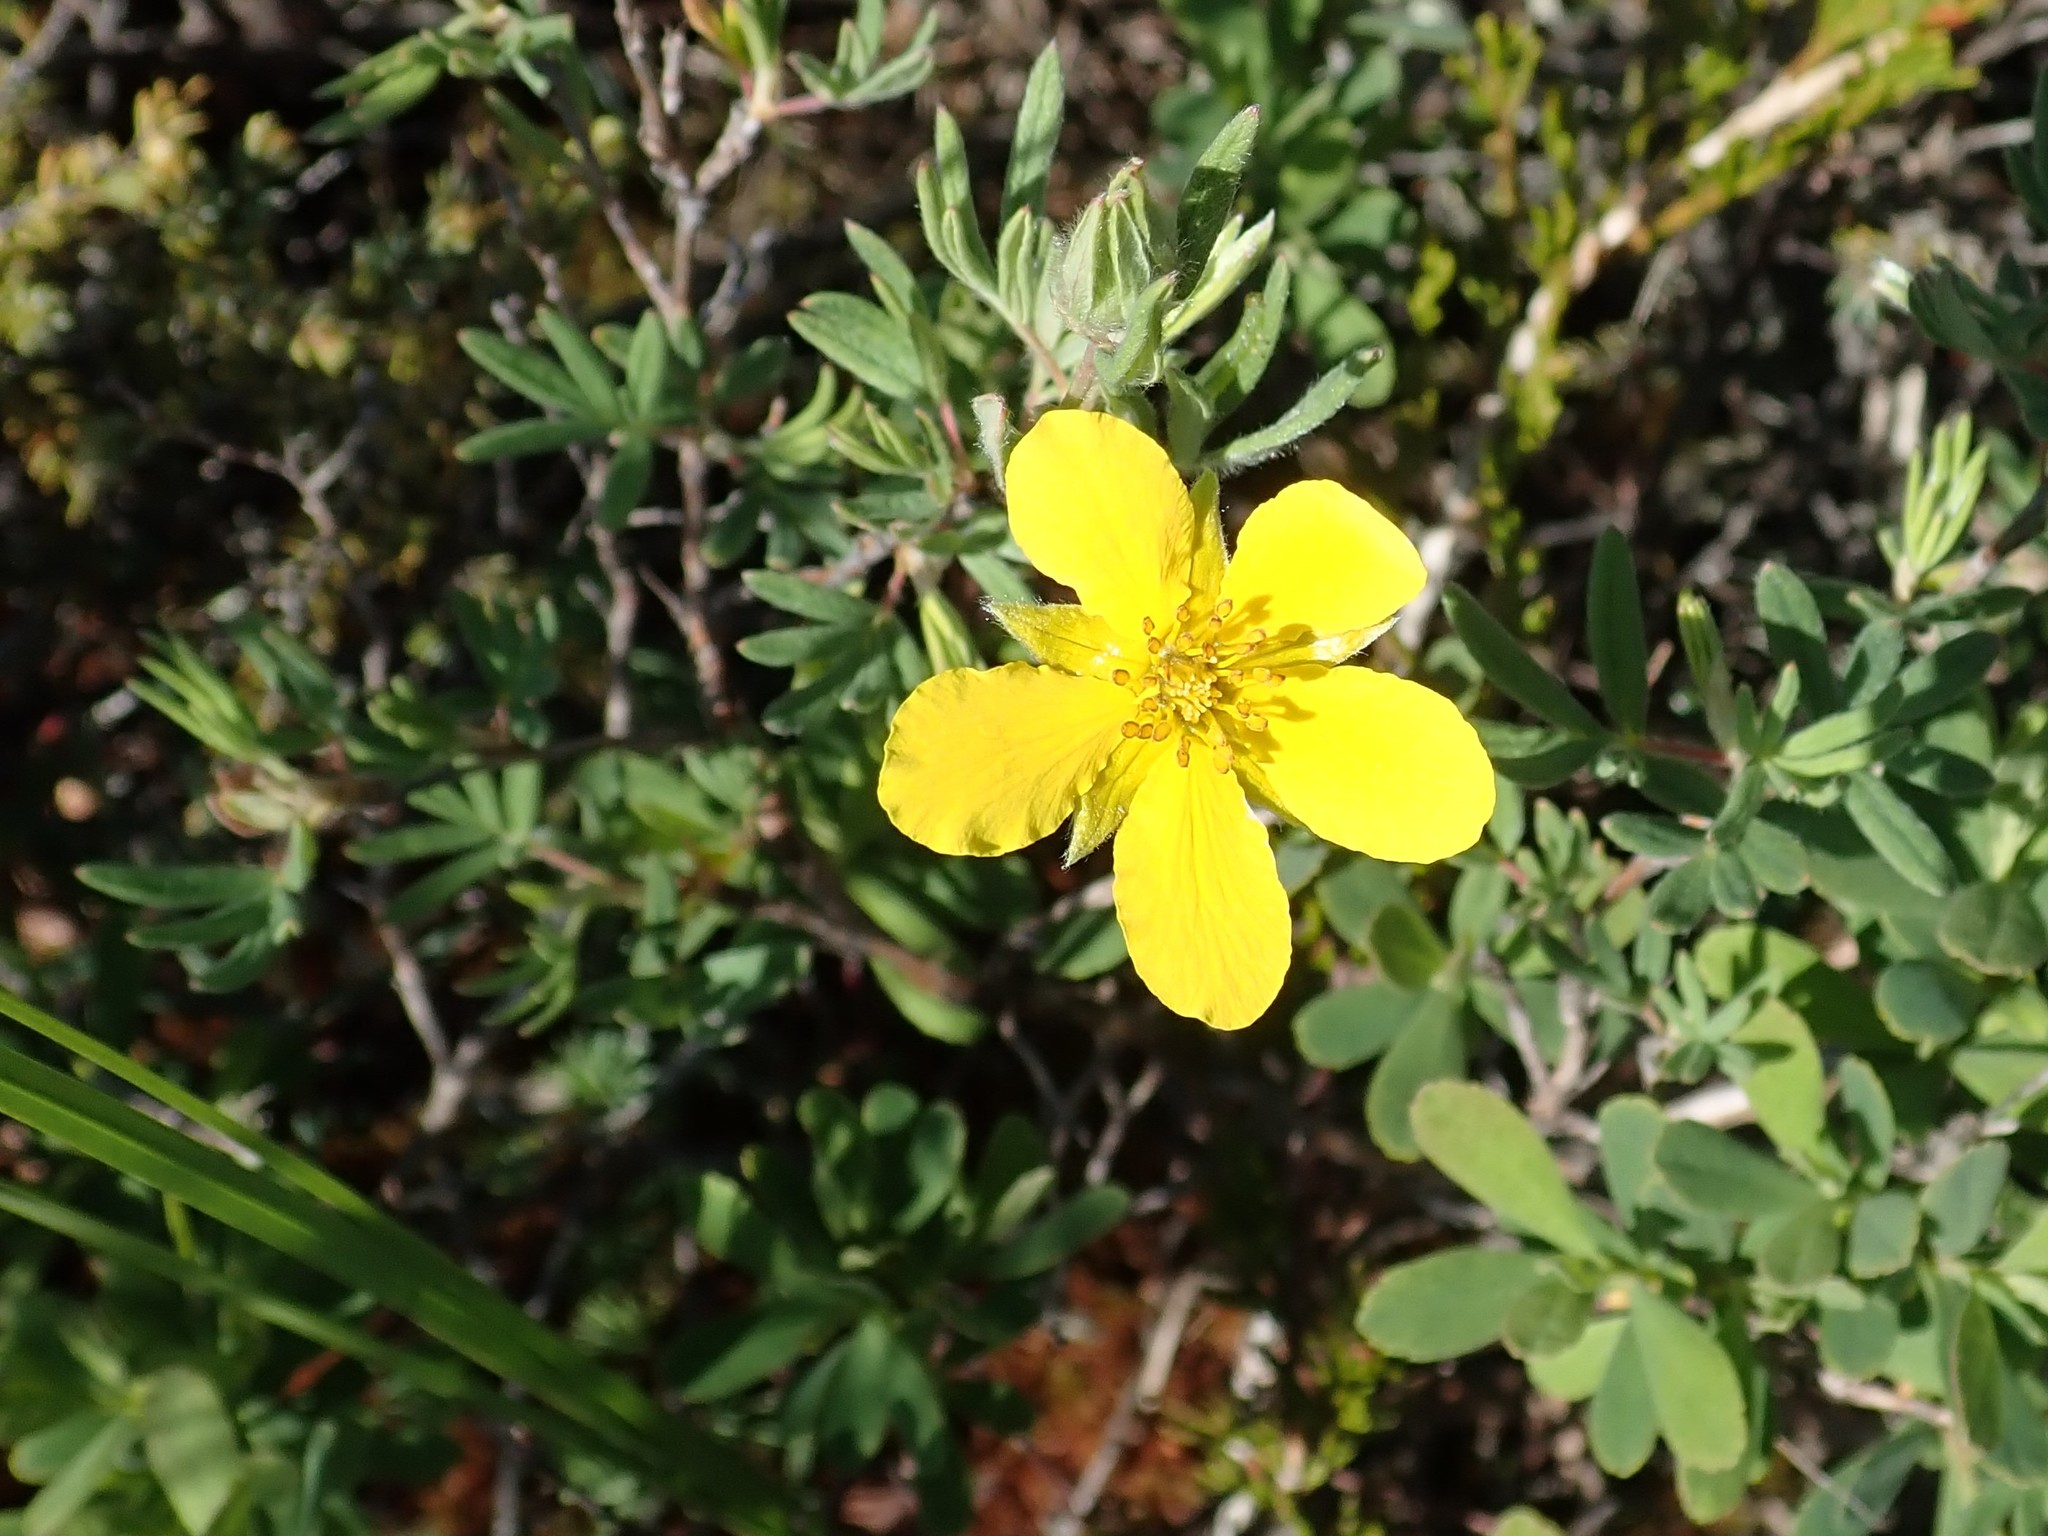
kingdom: Plantae
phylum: Tracheophyta
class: Magnoliopsida
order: Rosales
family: Rosaceae
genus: Dasiphora
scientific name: Dasiphora fruticosa
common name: Shrubby cinquefoil
